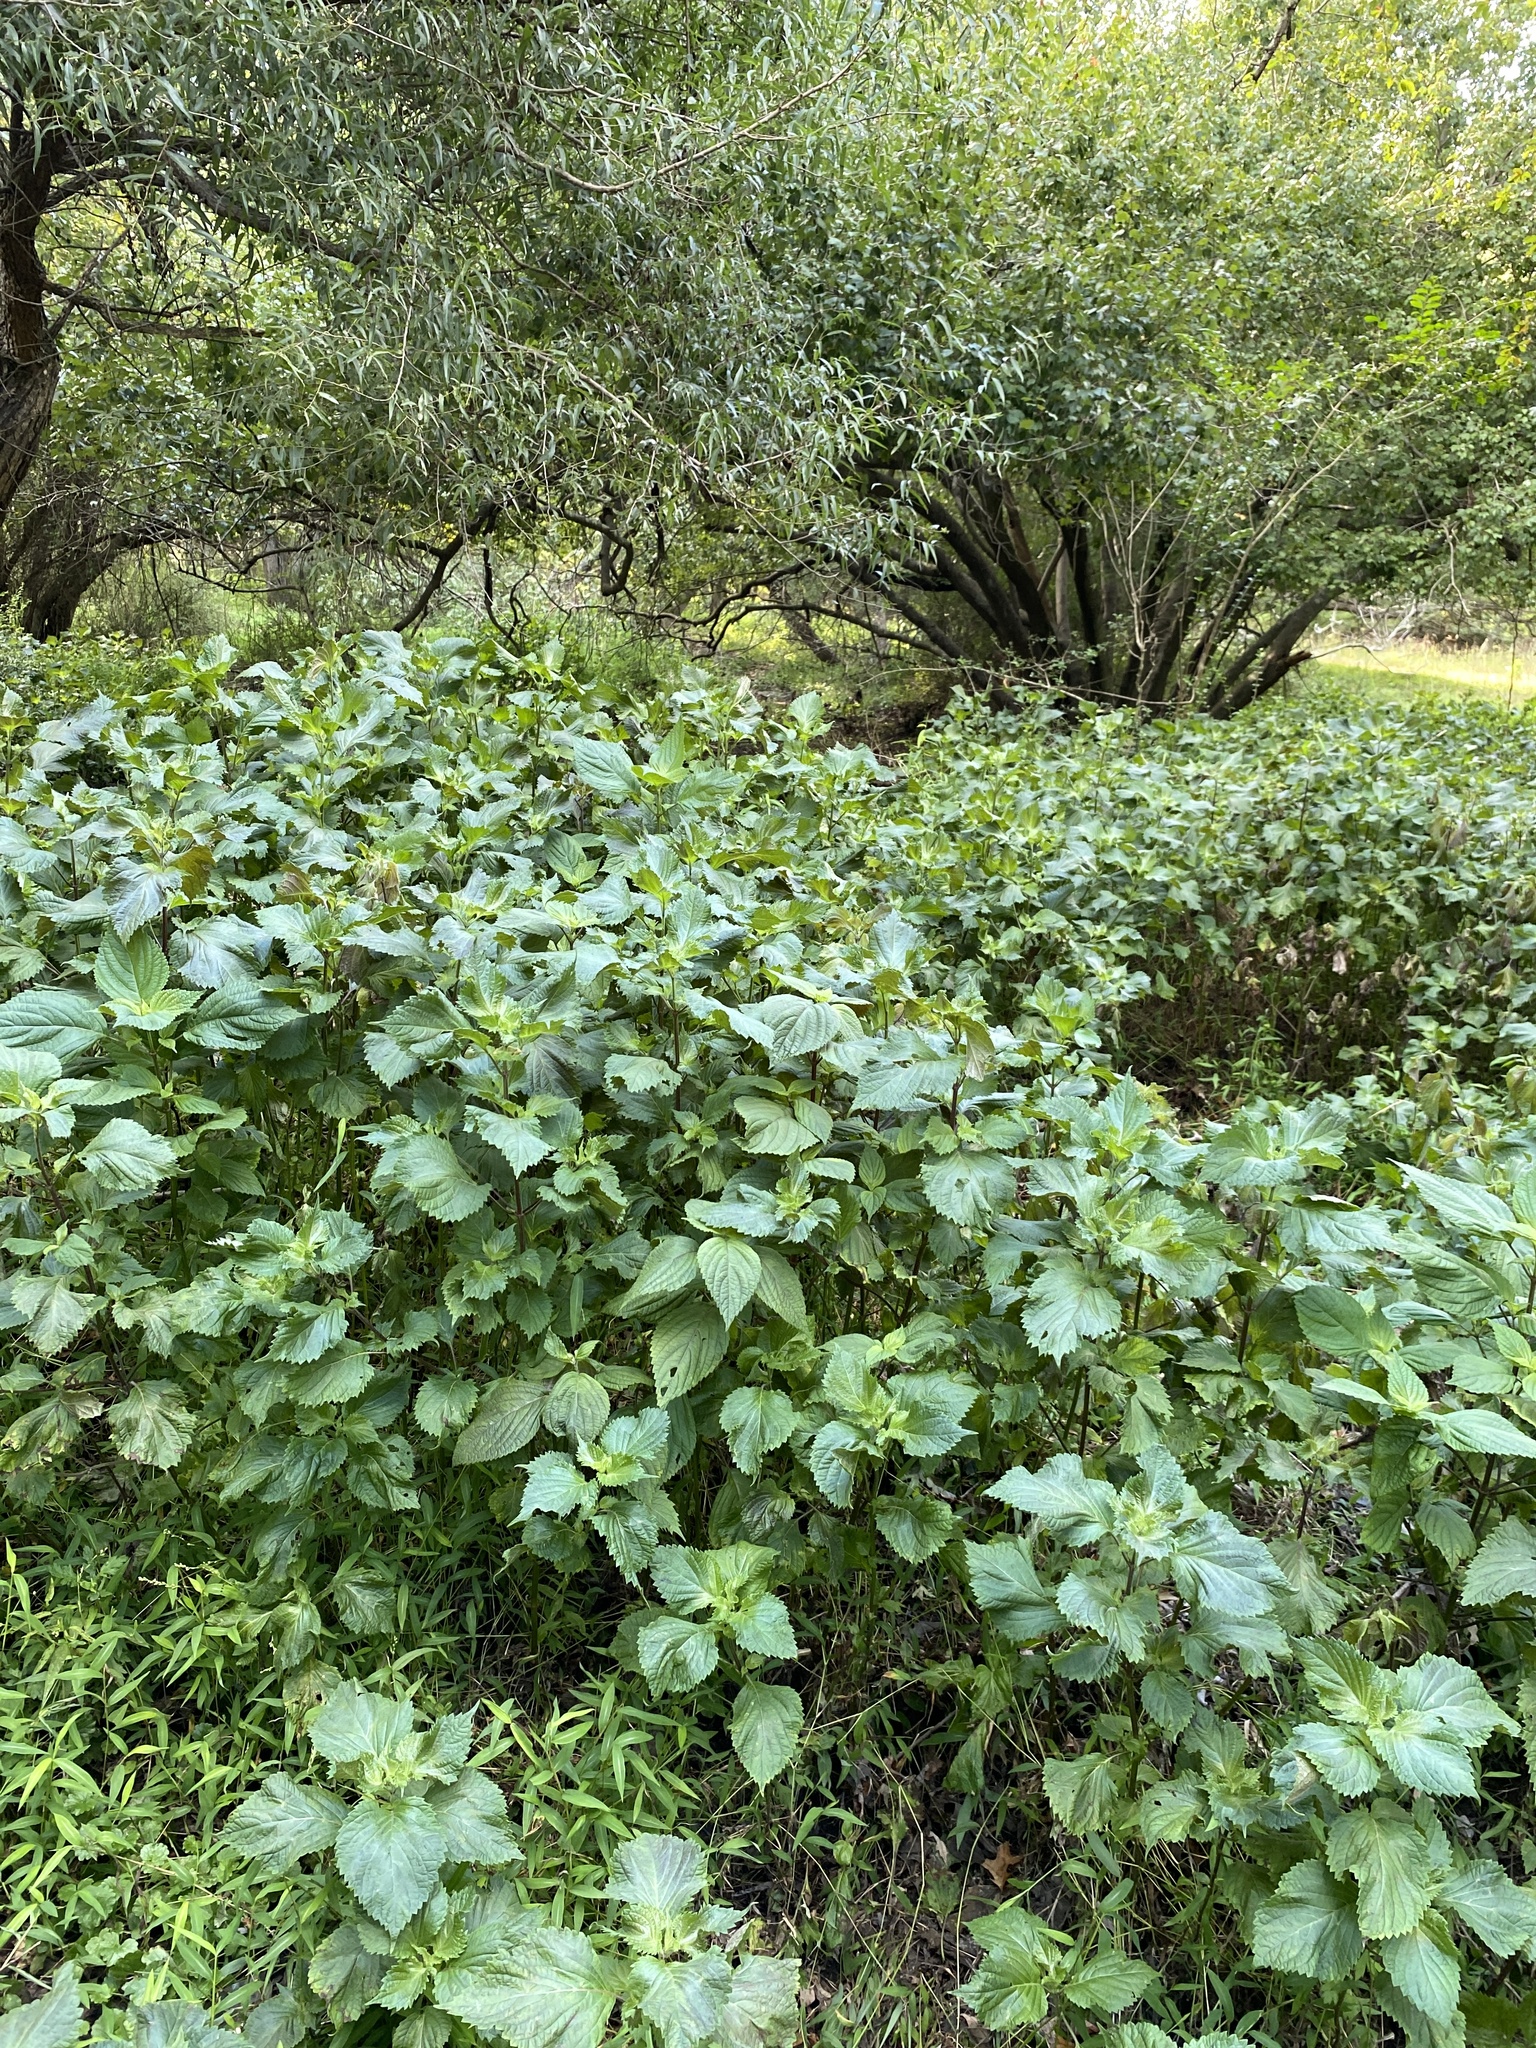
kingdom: Plantae
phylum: Tracheophyta
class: Magnoliopsida
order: Lamiales
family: Lamiaceae
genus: Perilla
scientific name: Perilla frutescens
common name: Perilla
